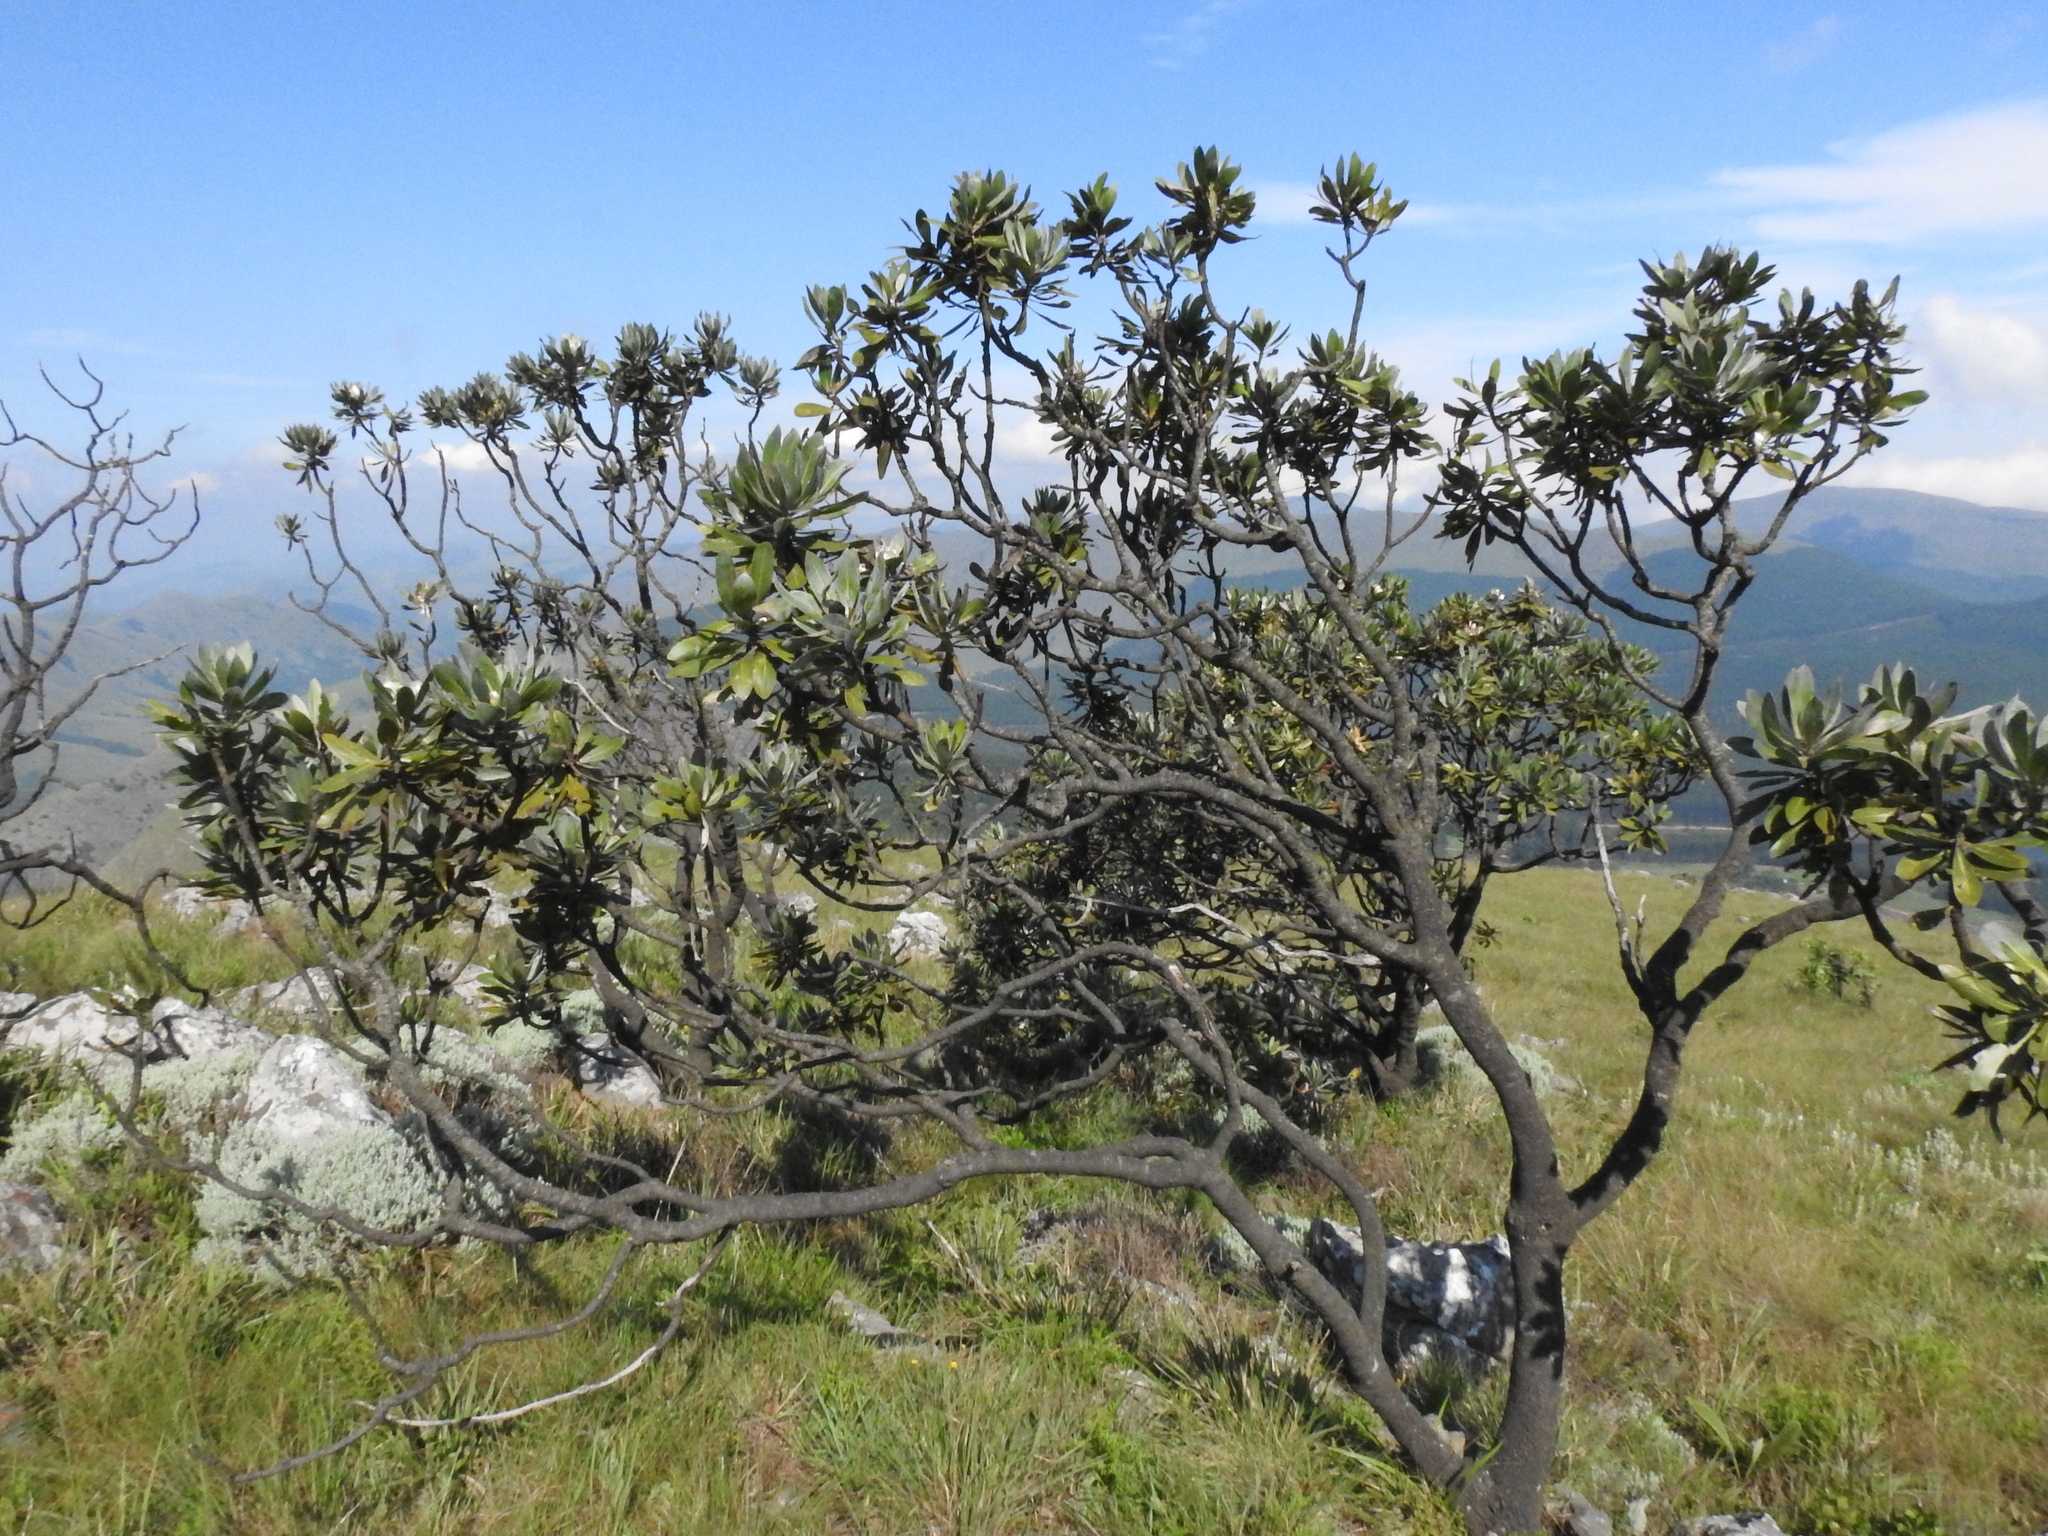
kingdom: Plantae
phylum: Tracheophyta
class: Magnoliopsida
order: Proteales
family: Proteaceae
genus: Protea
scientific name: Protea roupelliae
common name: Silver sugarbush
